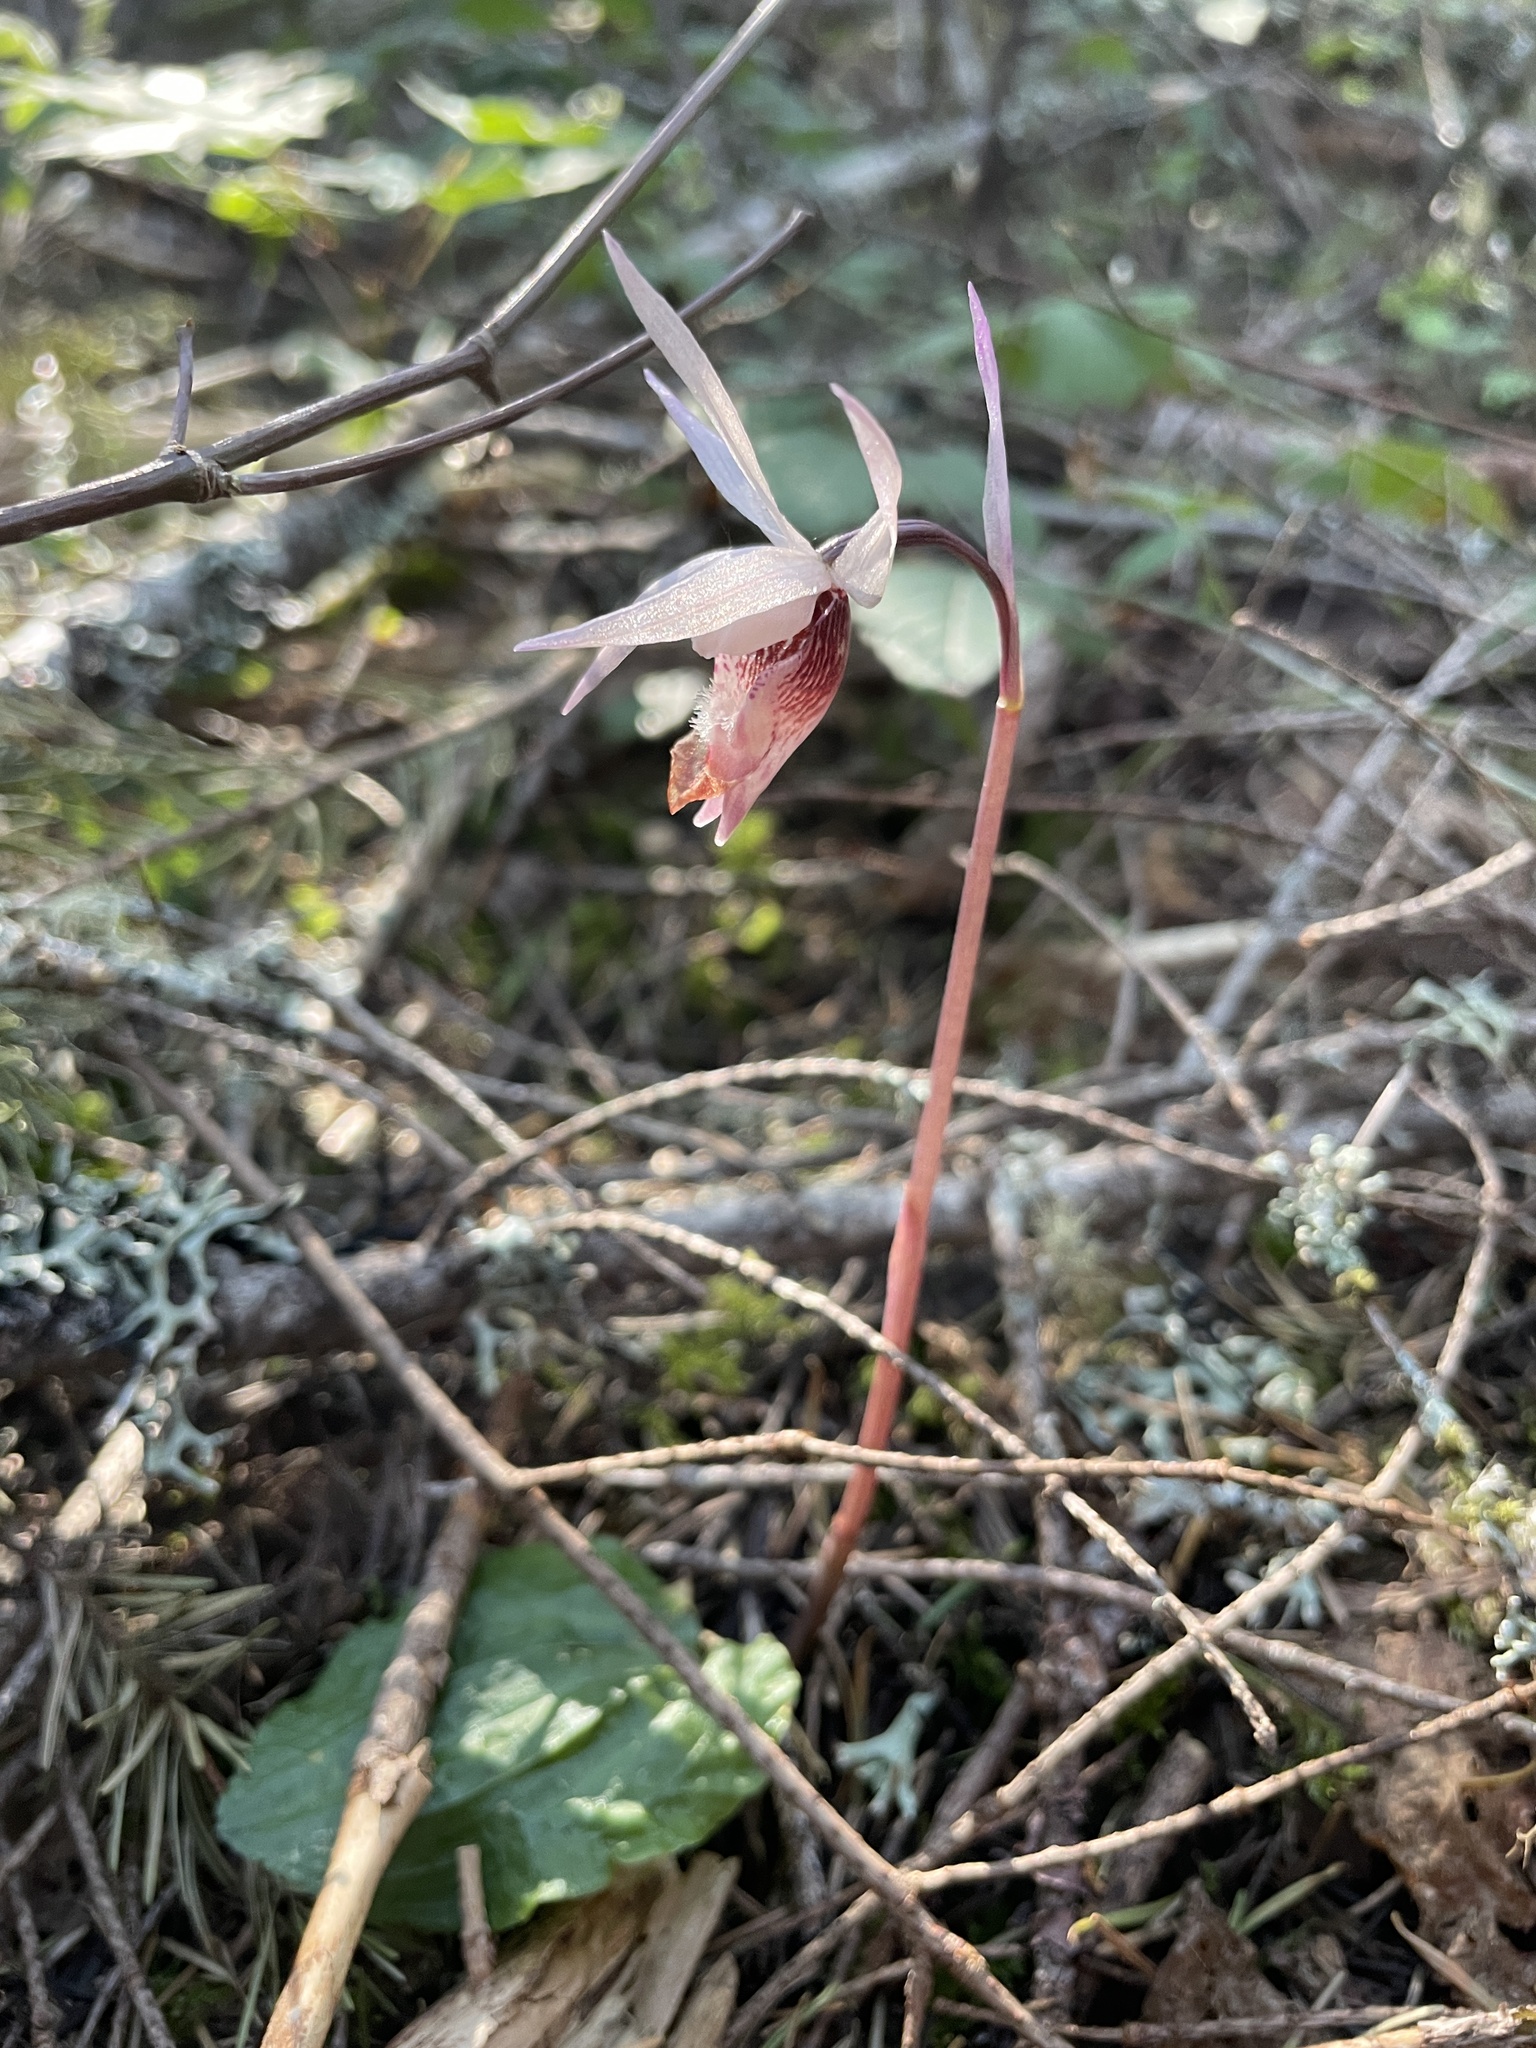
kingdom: Plantae
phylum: Tracheophyta
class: Liliopsida
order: Asparagales
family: Orchidaceae
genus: Calypso
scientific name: Calypso bulbosa
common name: Calypso
